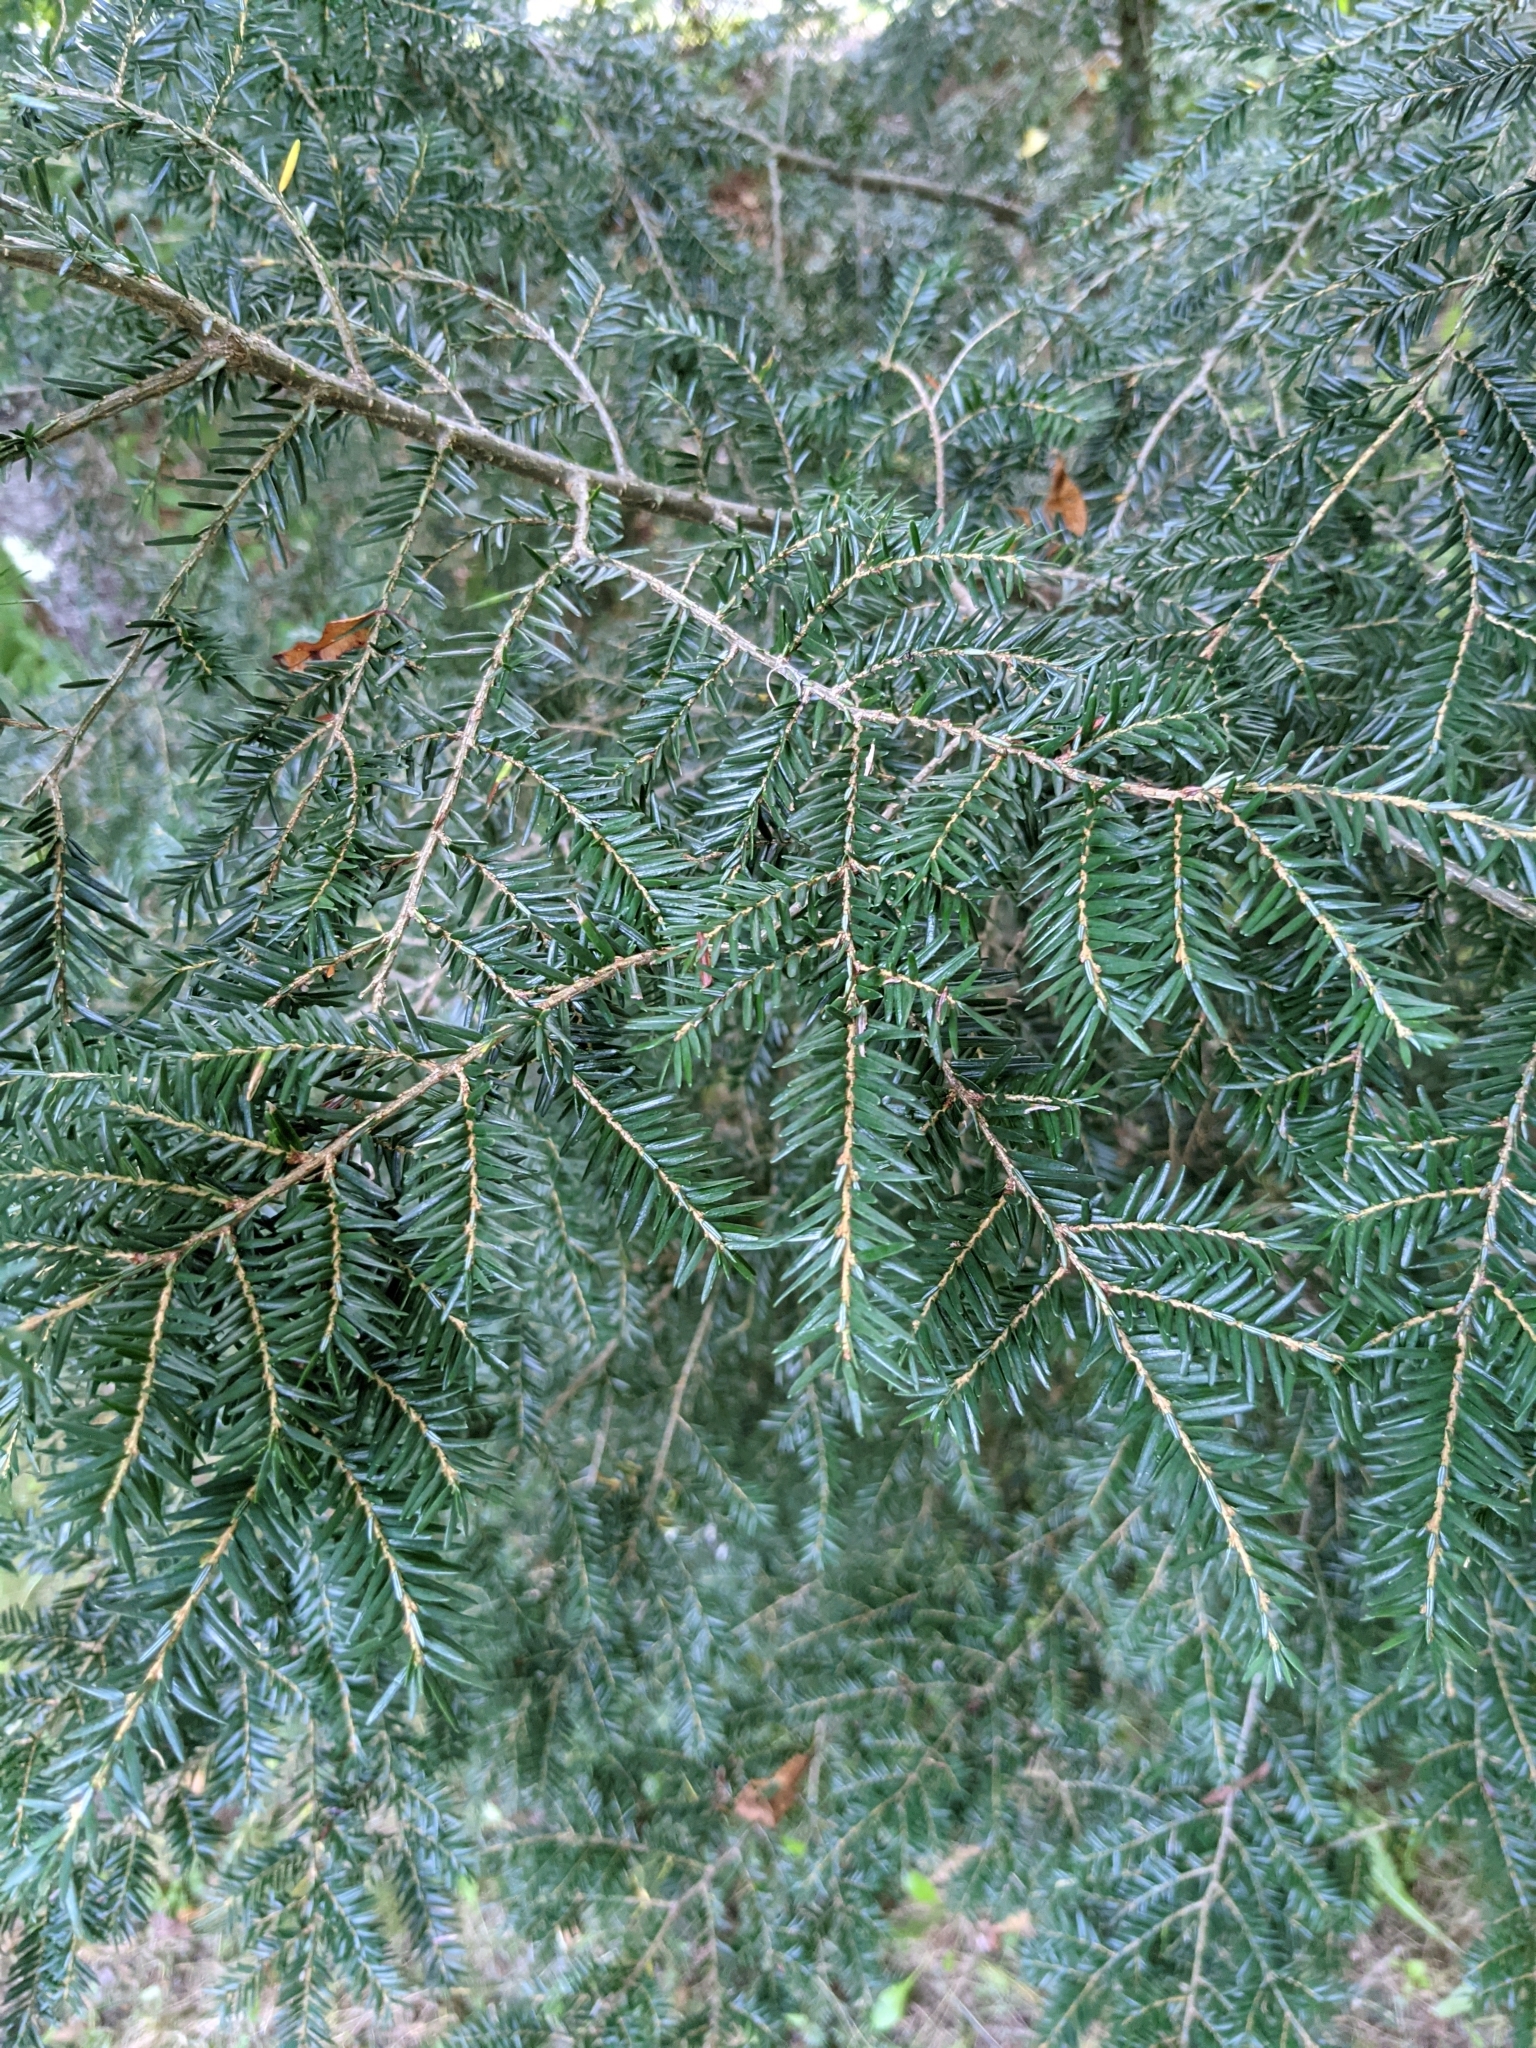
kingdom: Plantae
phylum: Tracheophyta
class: Pinopsida
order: Pinales
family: Pinaceae
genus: Tsuga
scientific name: Tsuga canadensis
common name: Eastern hemlock
